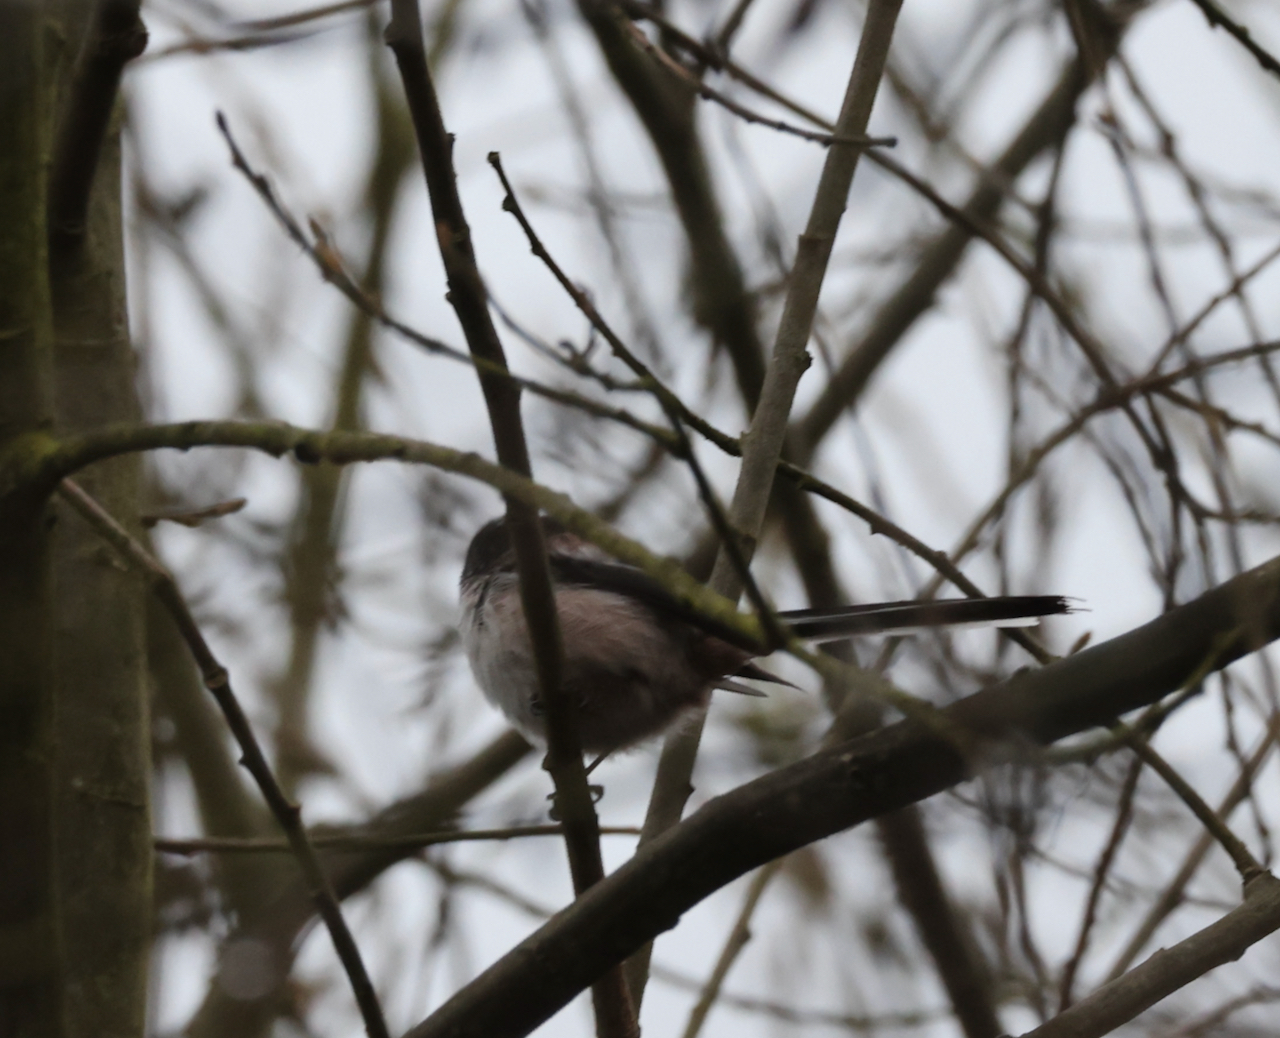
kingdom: Animalia
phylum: Chordata
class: Aves
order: Passeriformes
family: Aegithalidae
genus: Aegithalos
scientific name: Aegithalos caudatus
